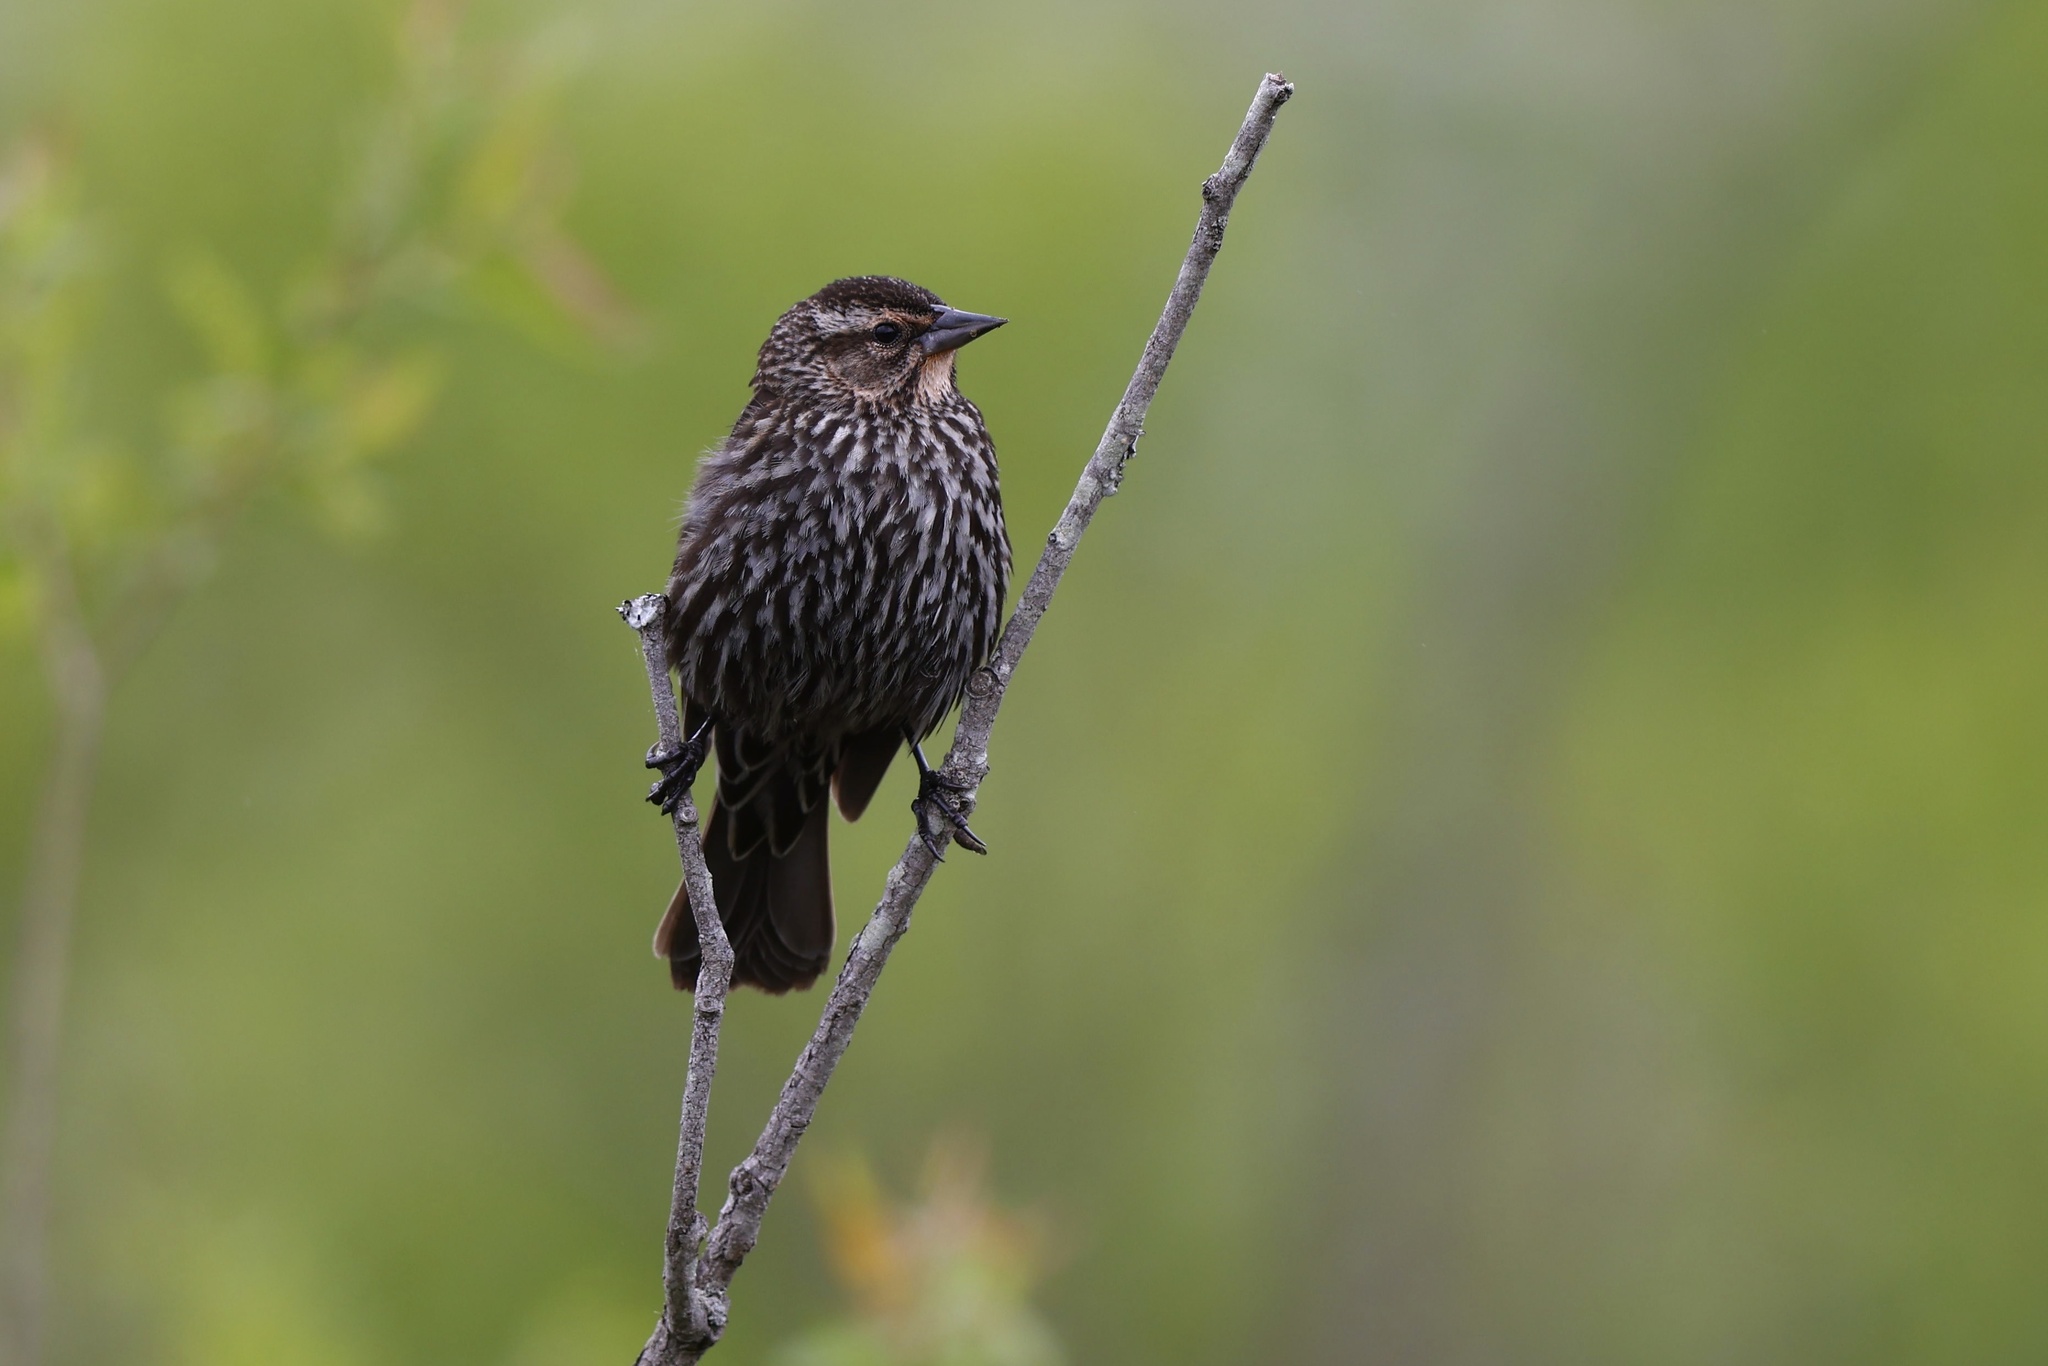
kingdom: Animalia
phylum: Chordata
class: Aves
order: Passeriformes
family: Icteridae
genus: Agelaius
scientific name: Agelaius phoeniceus
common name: Red-winged blackbird
